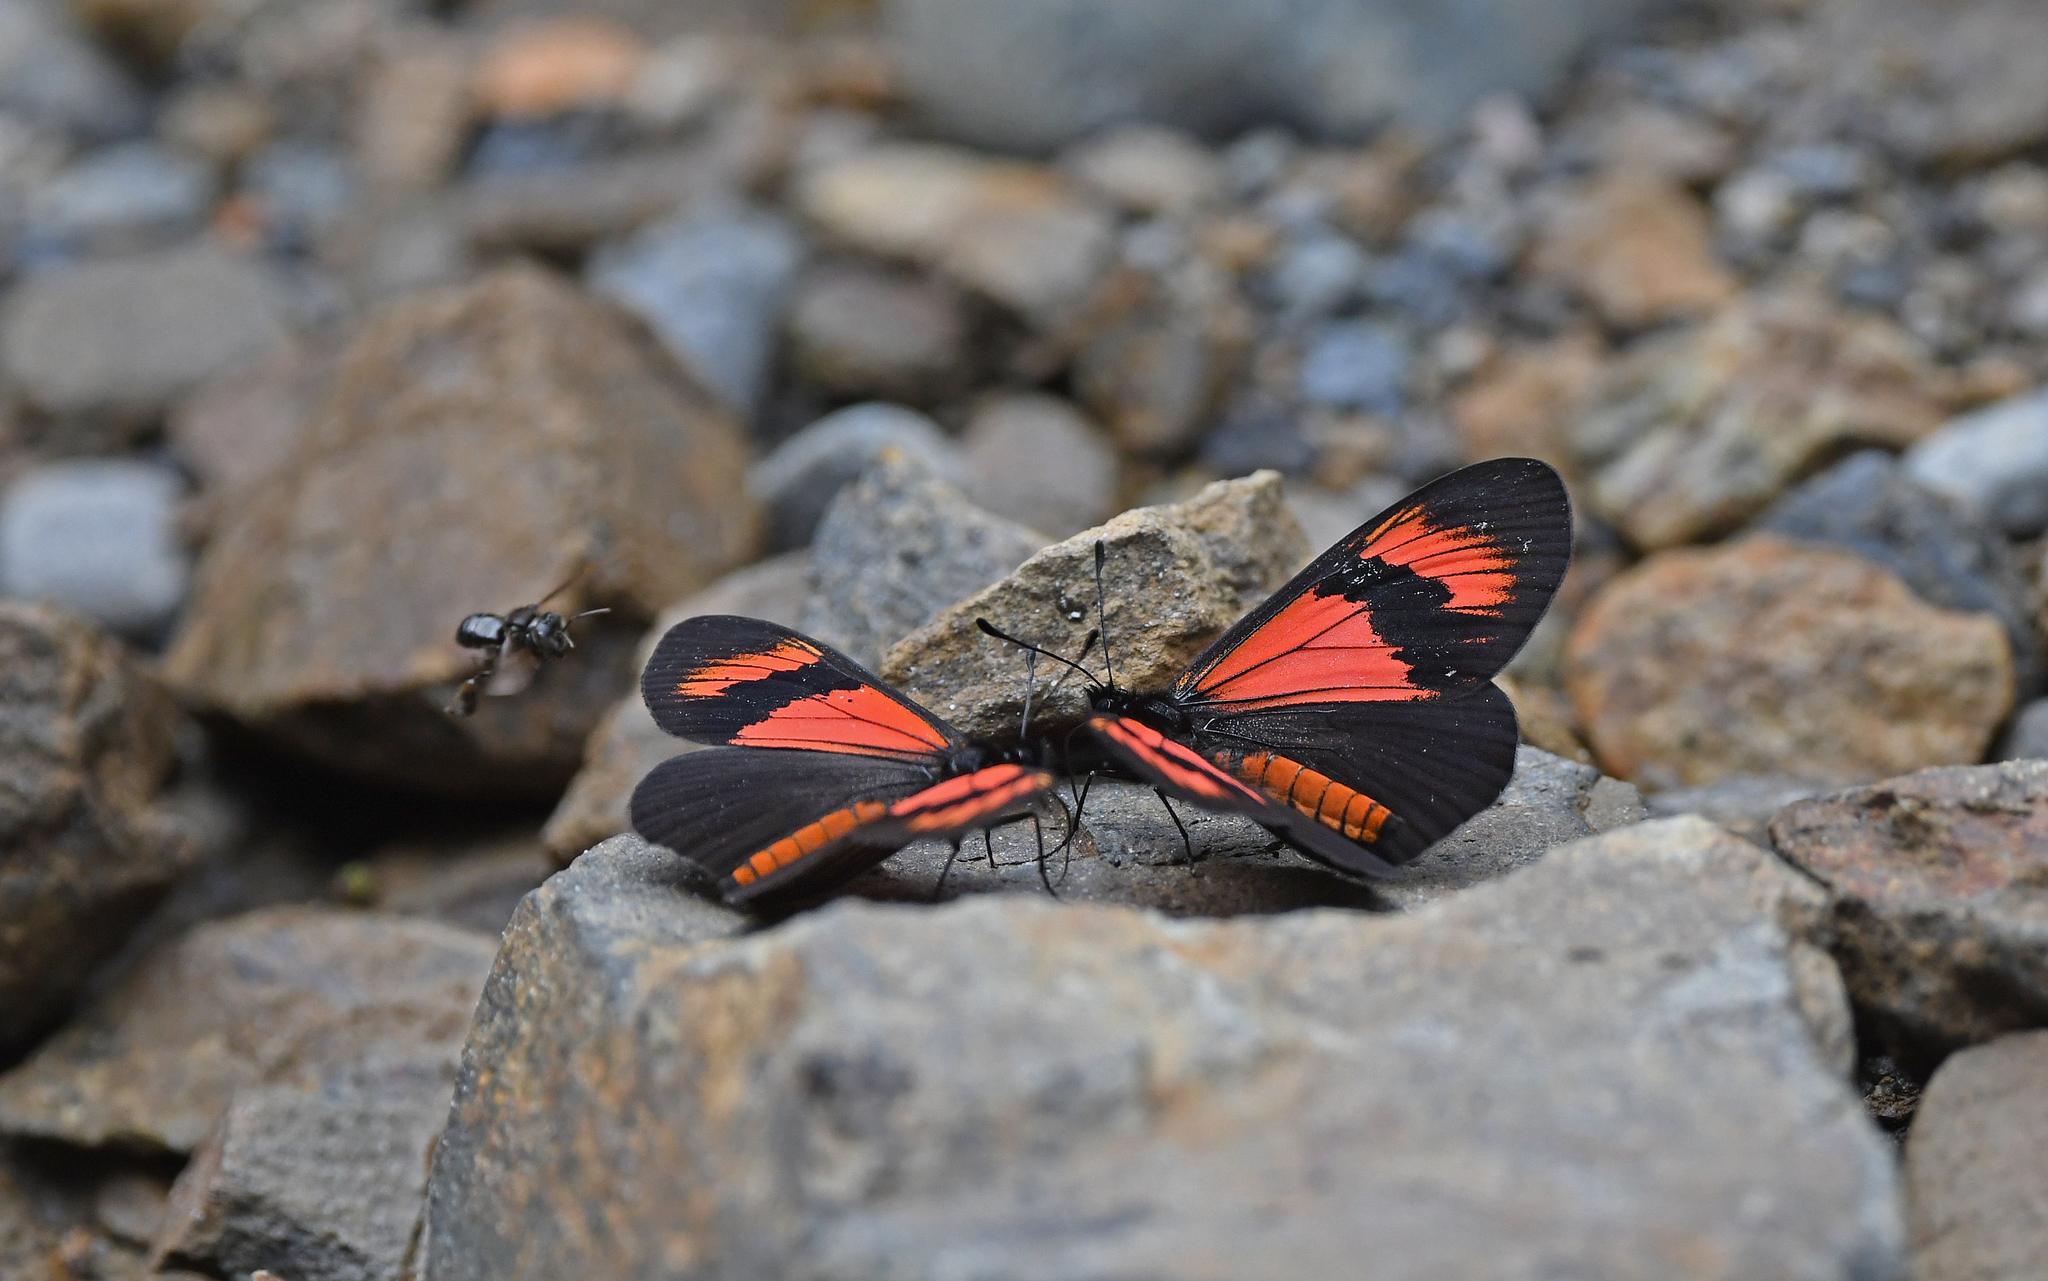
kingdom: Animalia
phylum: Arthropoda
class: Insecta
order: Lepidoptera
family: Nymphalidae
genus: Actinote
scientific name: Actinote alcione
